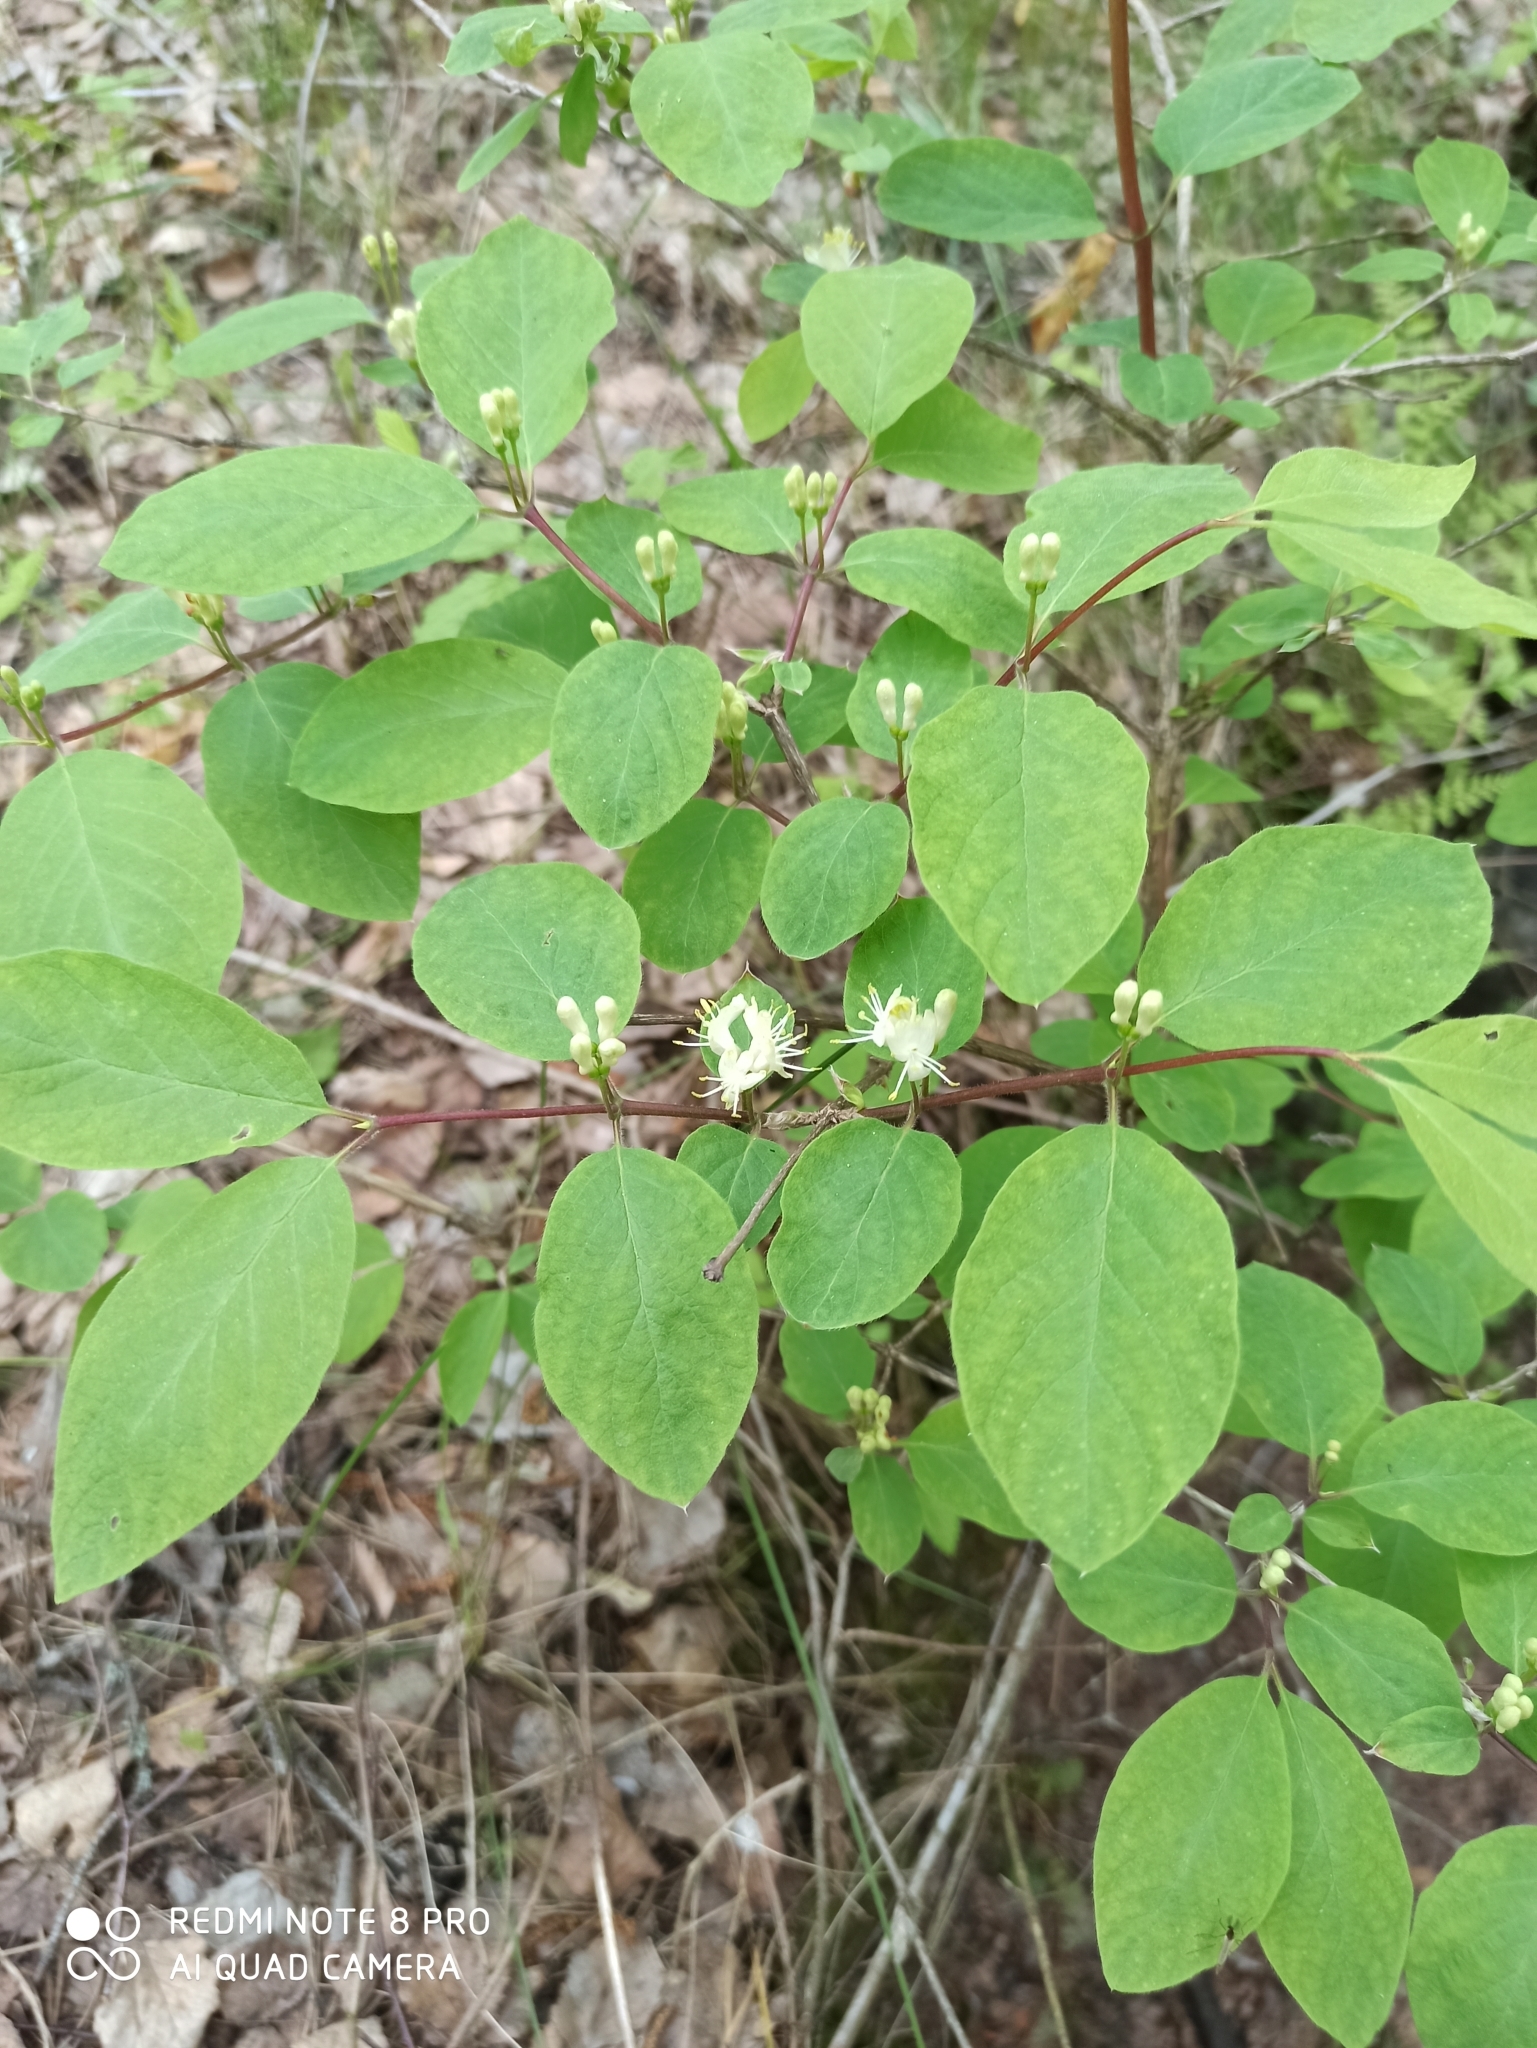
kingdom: Plantae
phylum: Tracheophyta
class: Magnoliopsida
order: Dipsacales
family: Caprifoliaceae
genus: Lonicera
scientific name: Lonicera xylosteum
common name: Fly honeysuckle
